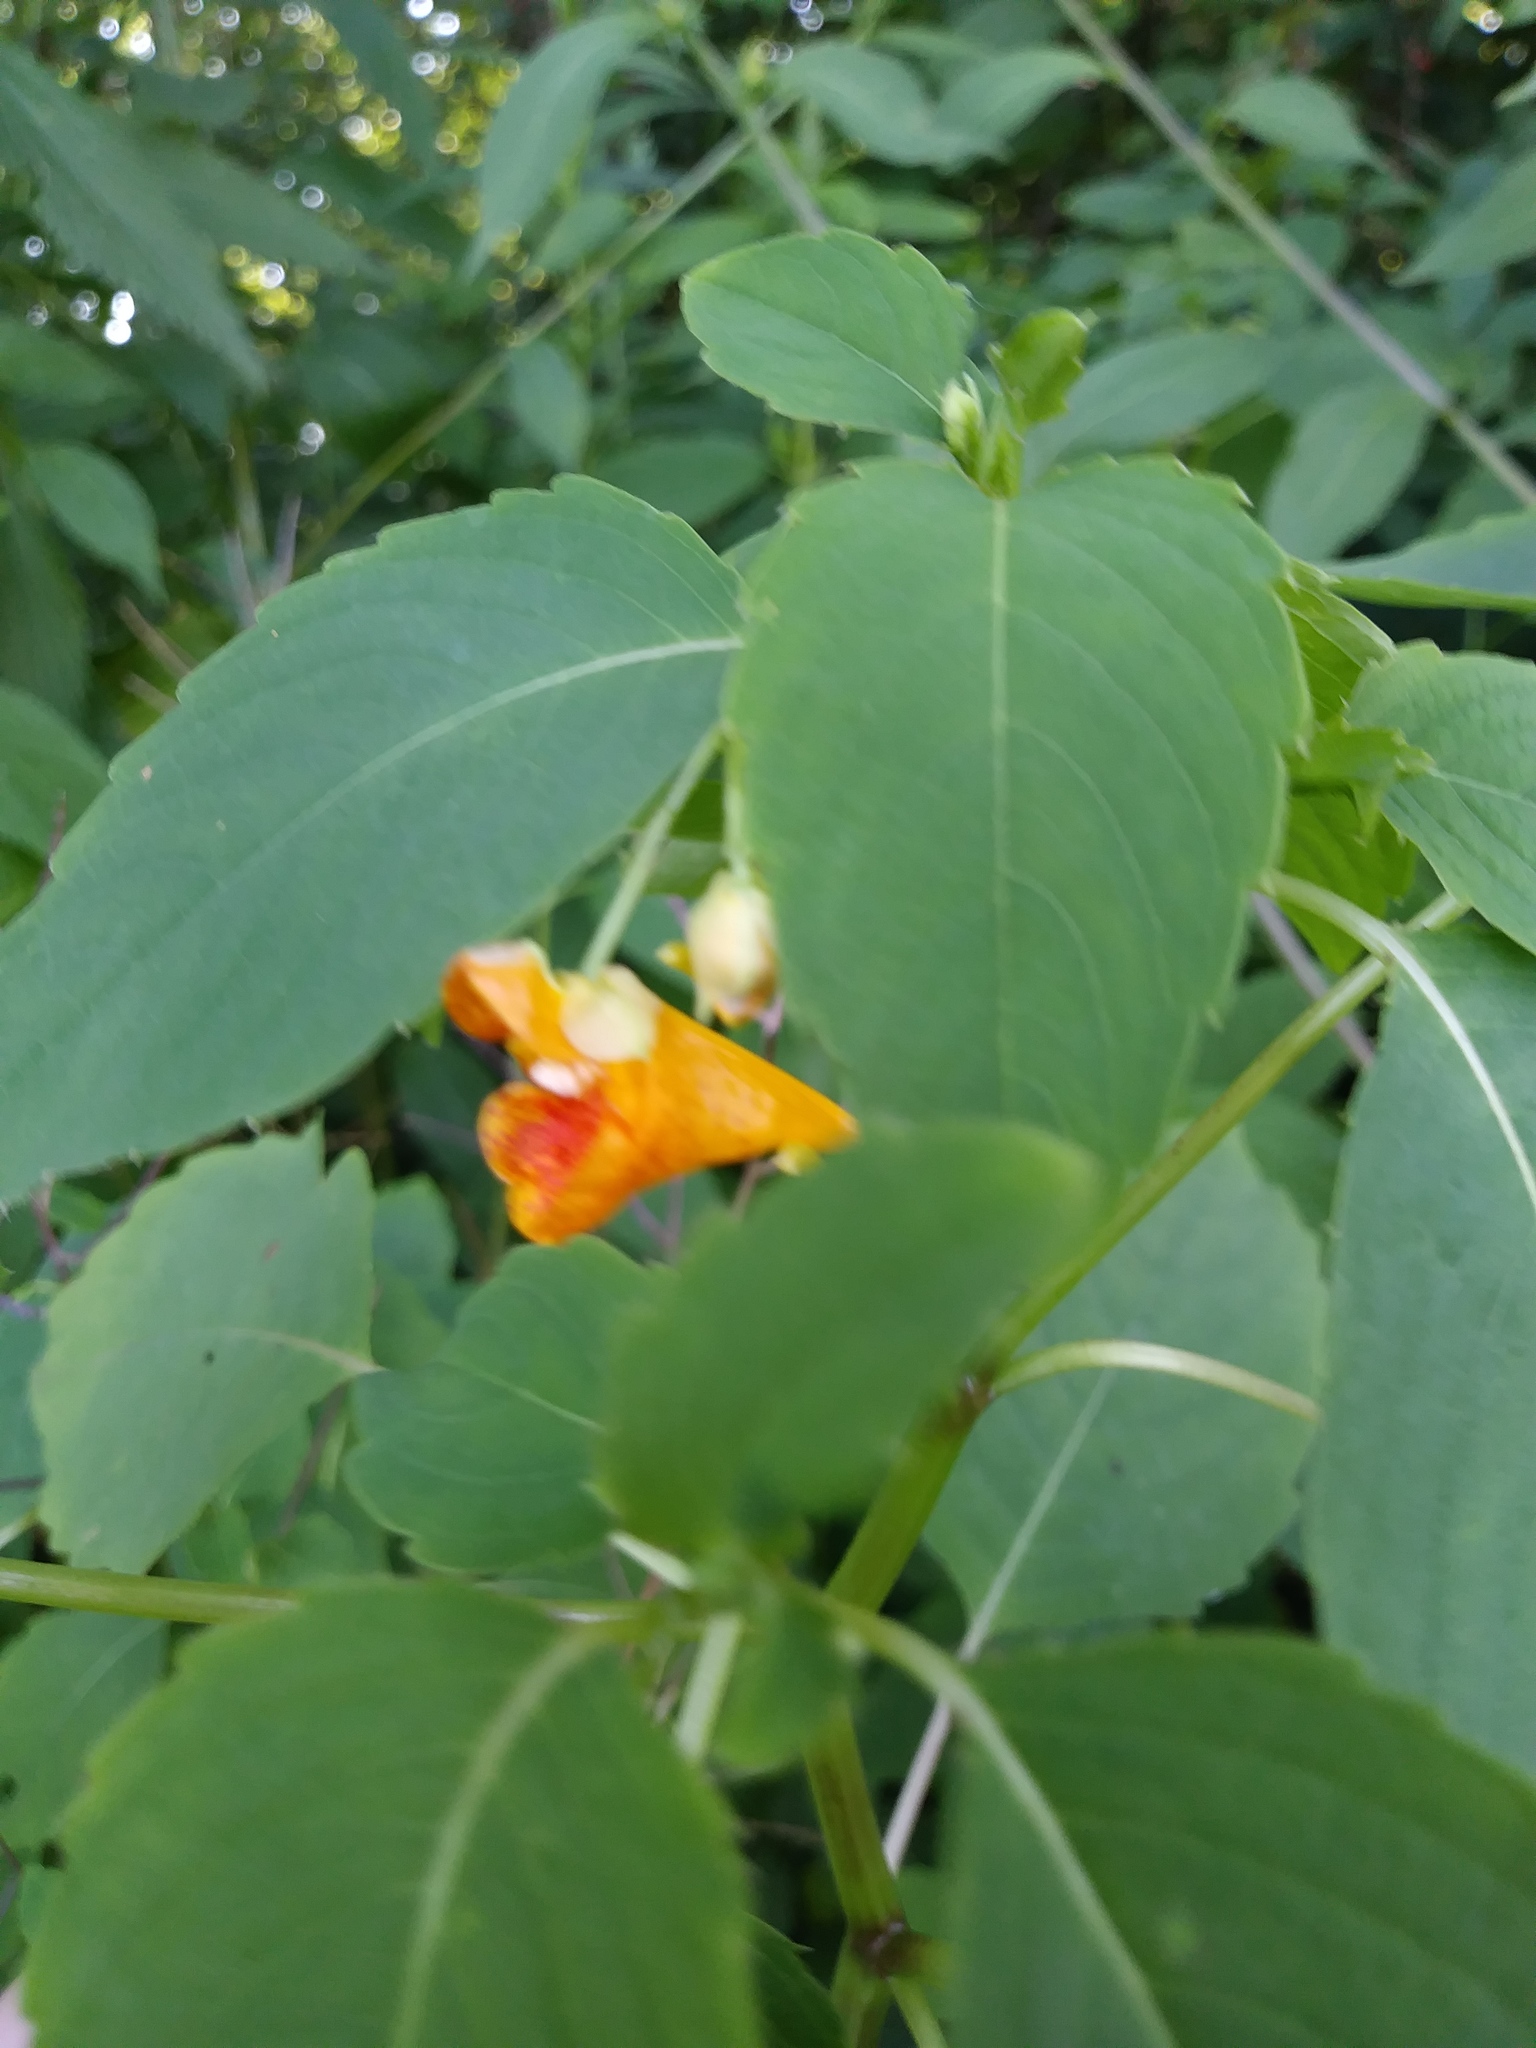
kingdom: Plantae
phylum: Tracheophyta
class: Magnoliopsida
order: Ericales
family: Balsaminaceae
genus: Impatiens
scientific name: Impatiens capensis
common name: Orange balsam
